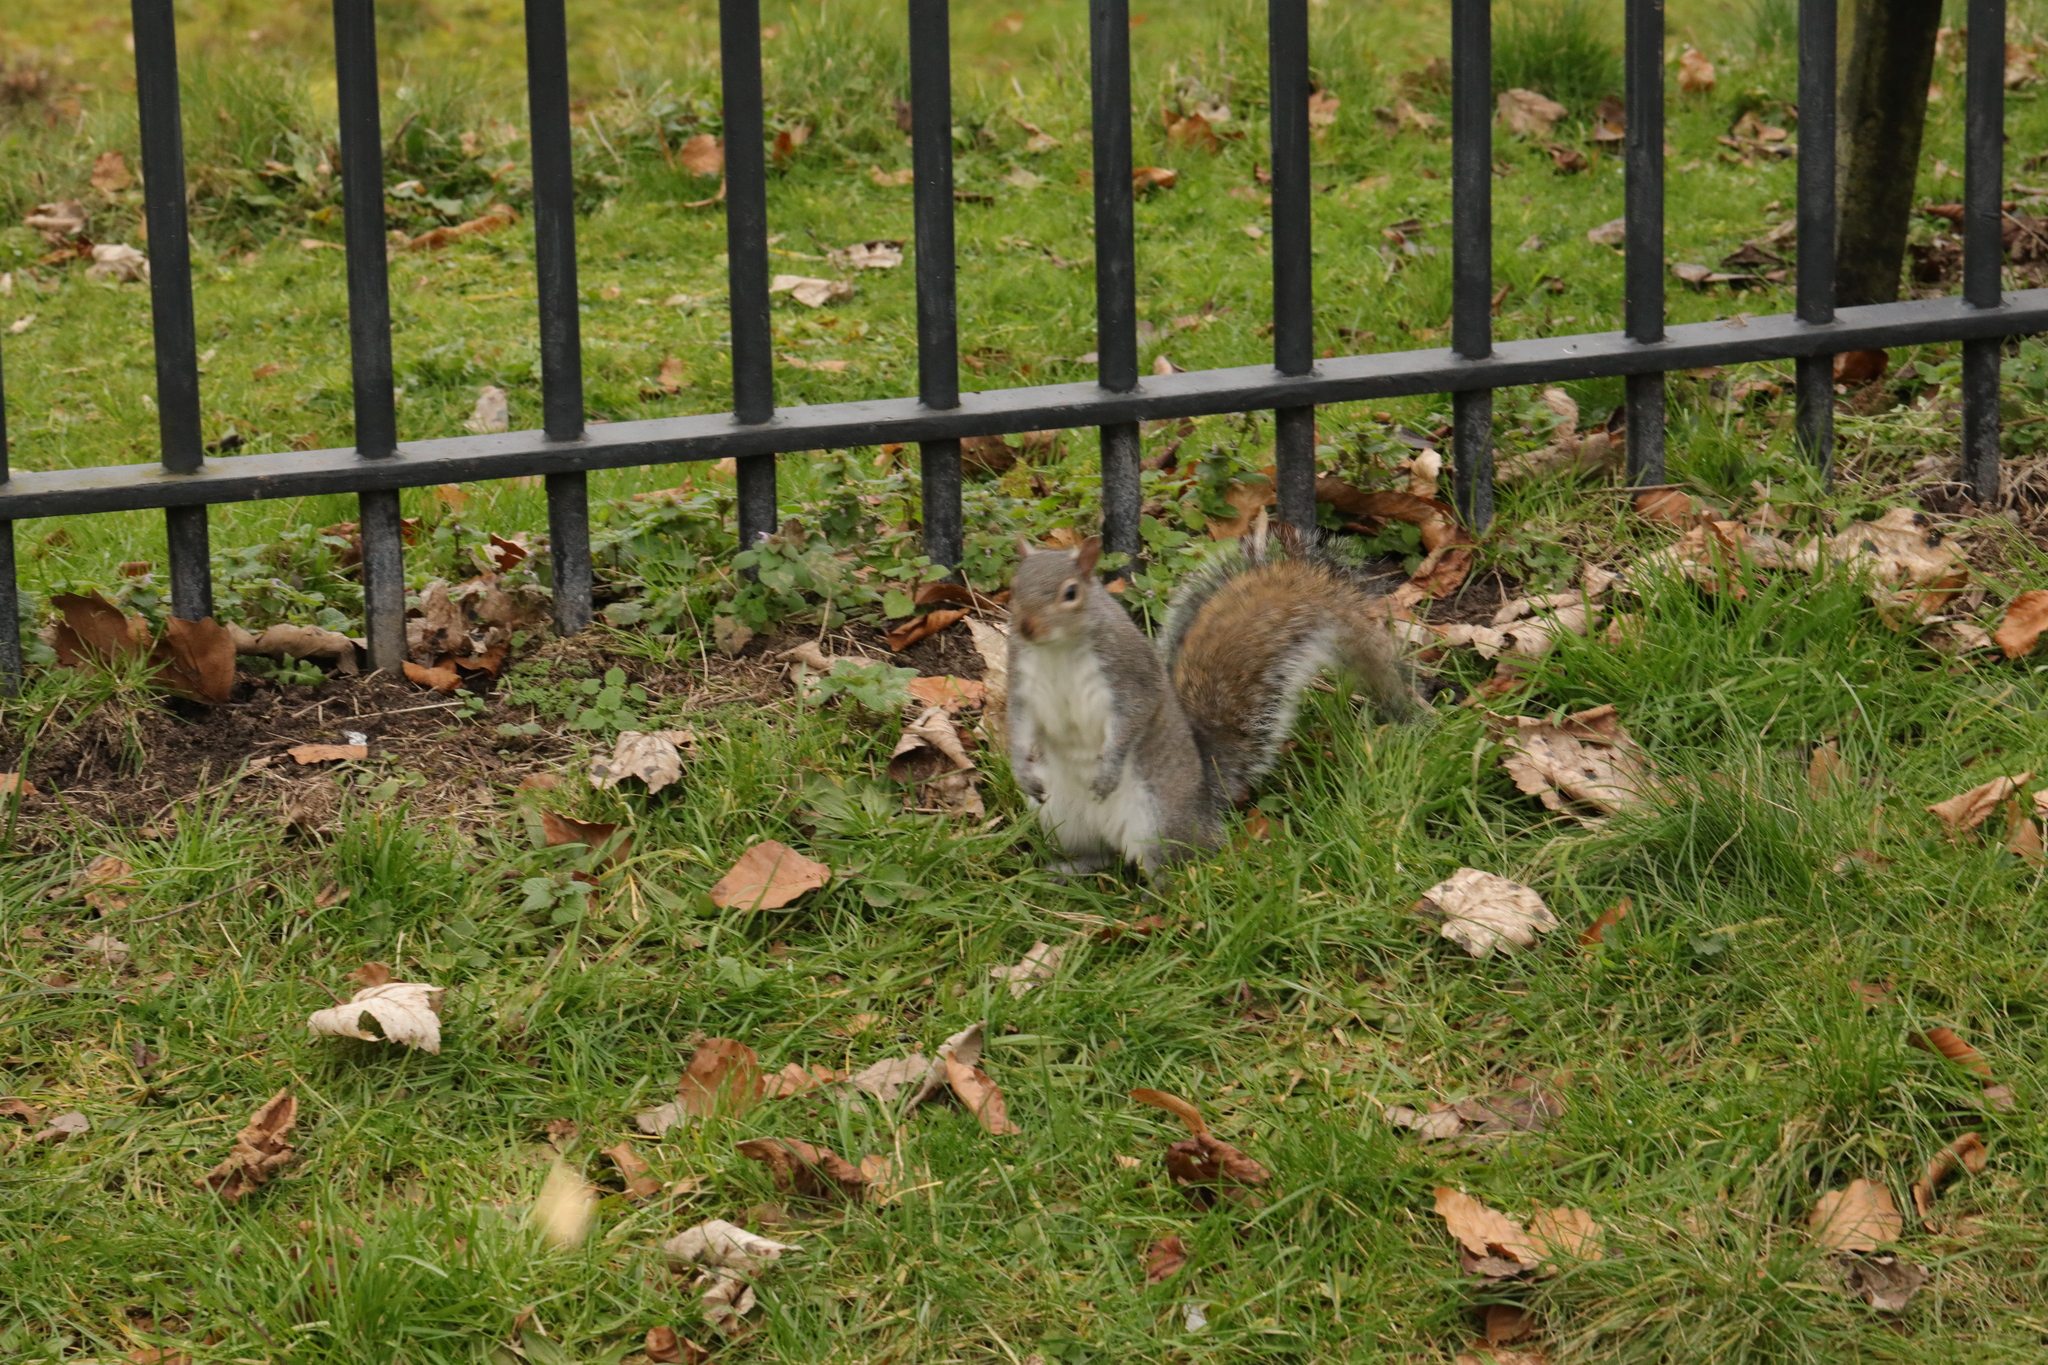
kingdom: Animalia
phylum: Chordata
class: Mammalia
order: Rodentia
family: Sciuridae
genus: Sciurus
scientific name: Sciurus carolinensis
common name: Eastern gray squirrel
